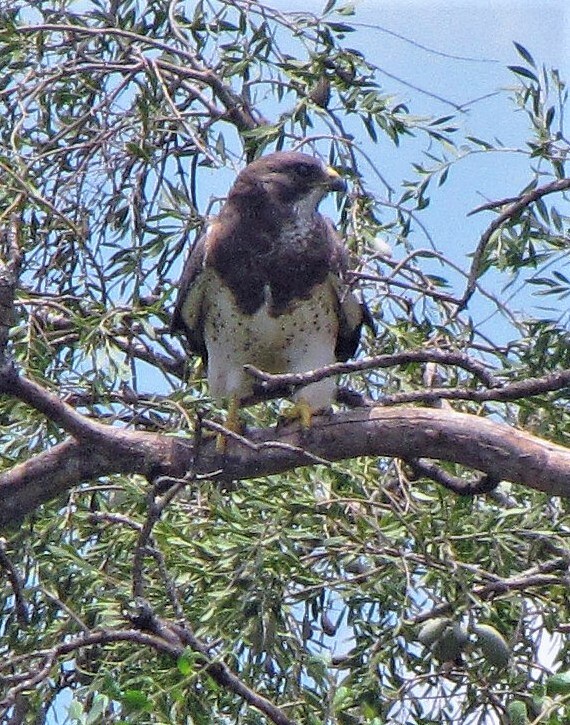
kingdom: Animalia
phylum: Chordata
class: Aves
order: Accipitriformes
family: Accipitridae
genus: Buteo
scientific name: Buteo swainsoni
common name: Swainson's hawk
